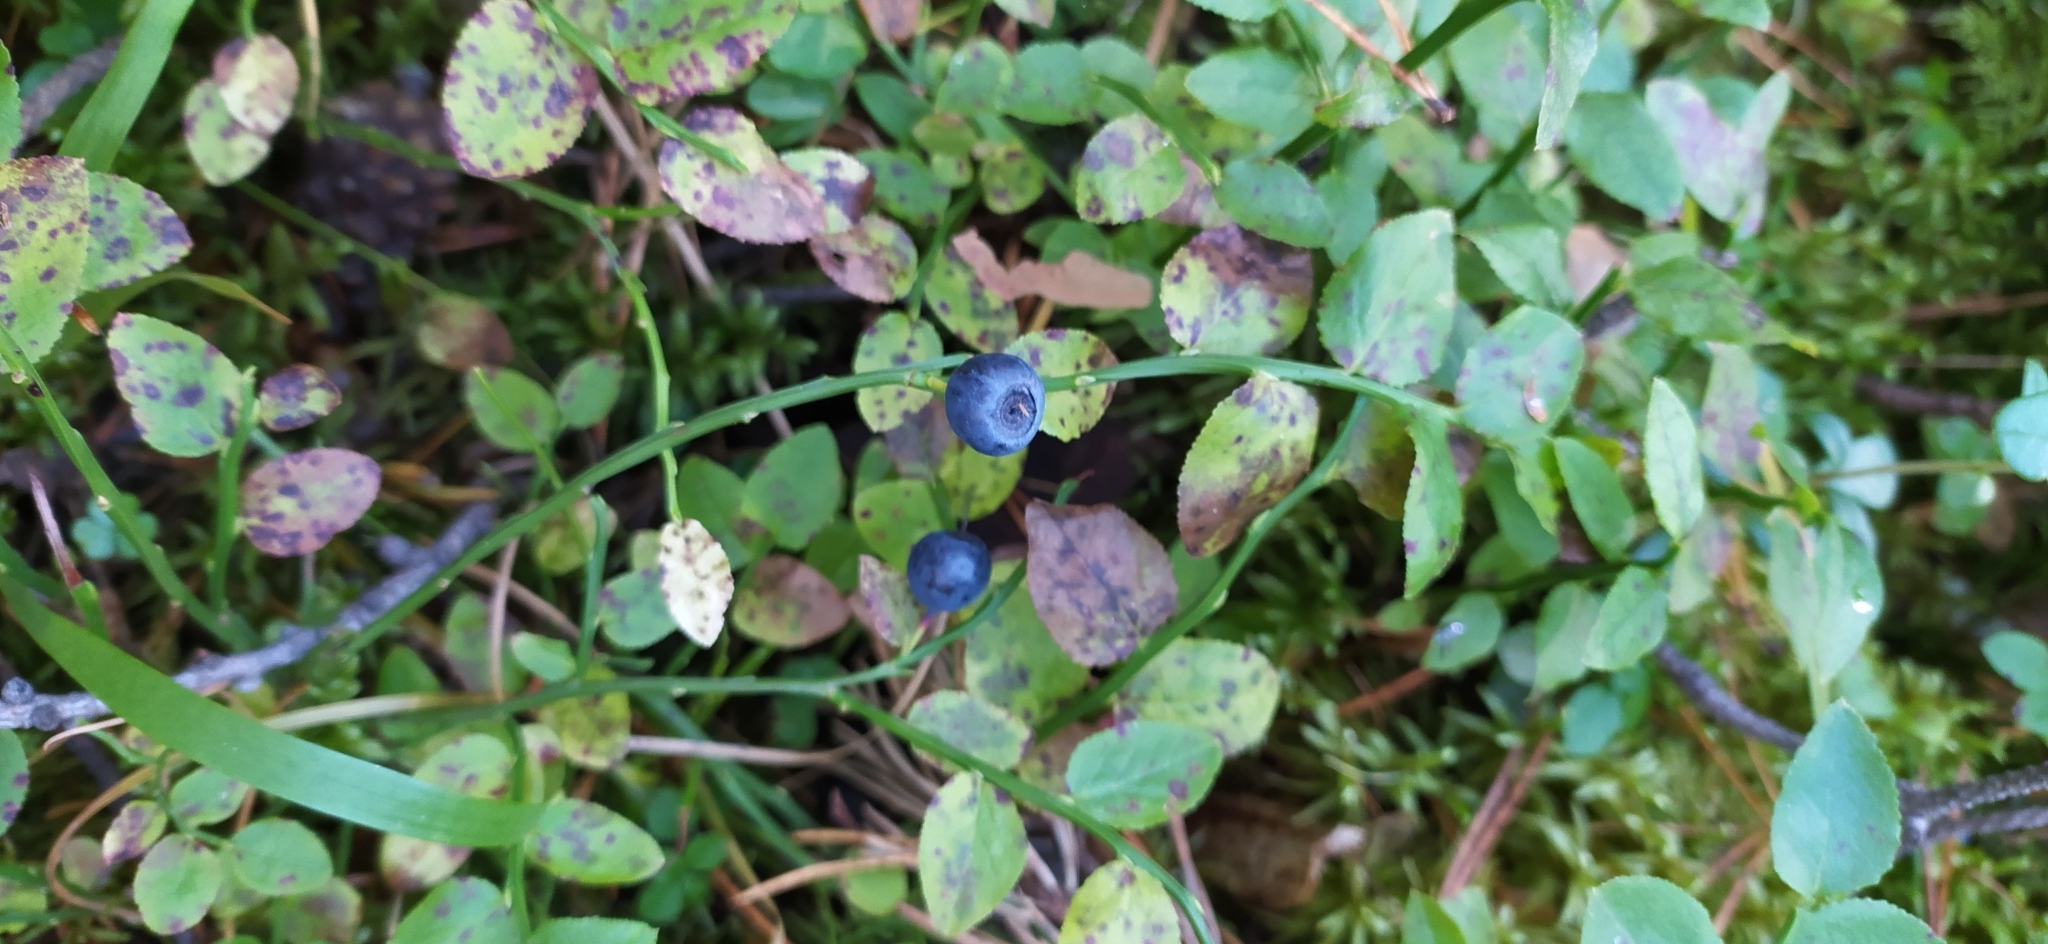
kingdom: Plantae
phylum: Tracheophyta
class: Magnoliopsida
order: Ericales
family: Ericaceae
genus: Vaccinium
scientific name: Vaccinium myrtillus
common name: Bilberry
